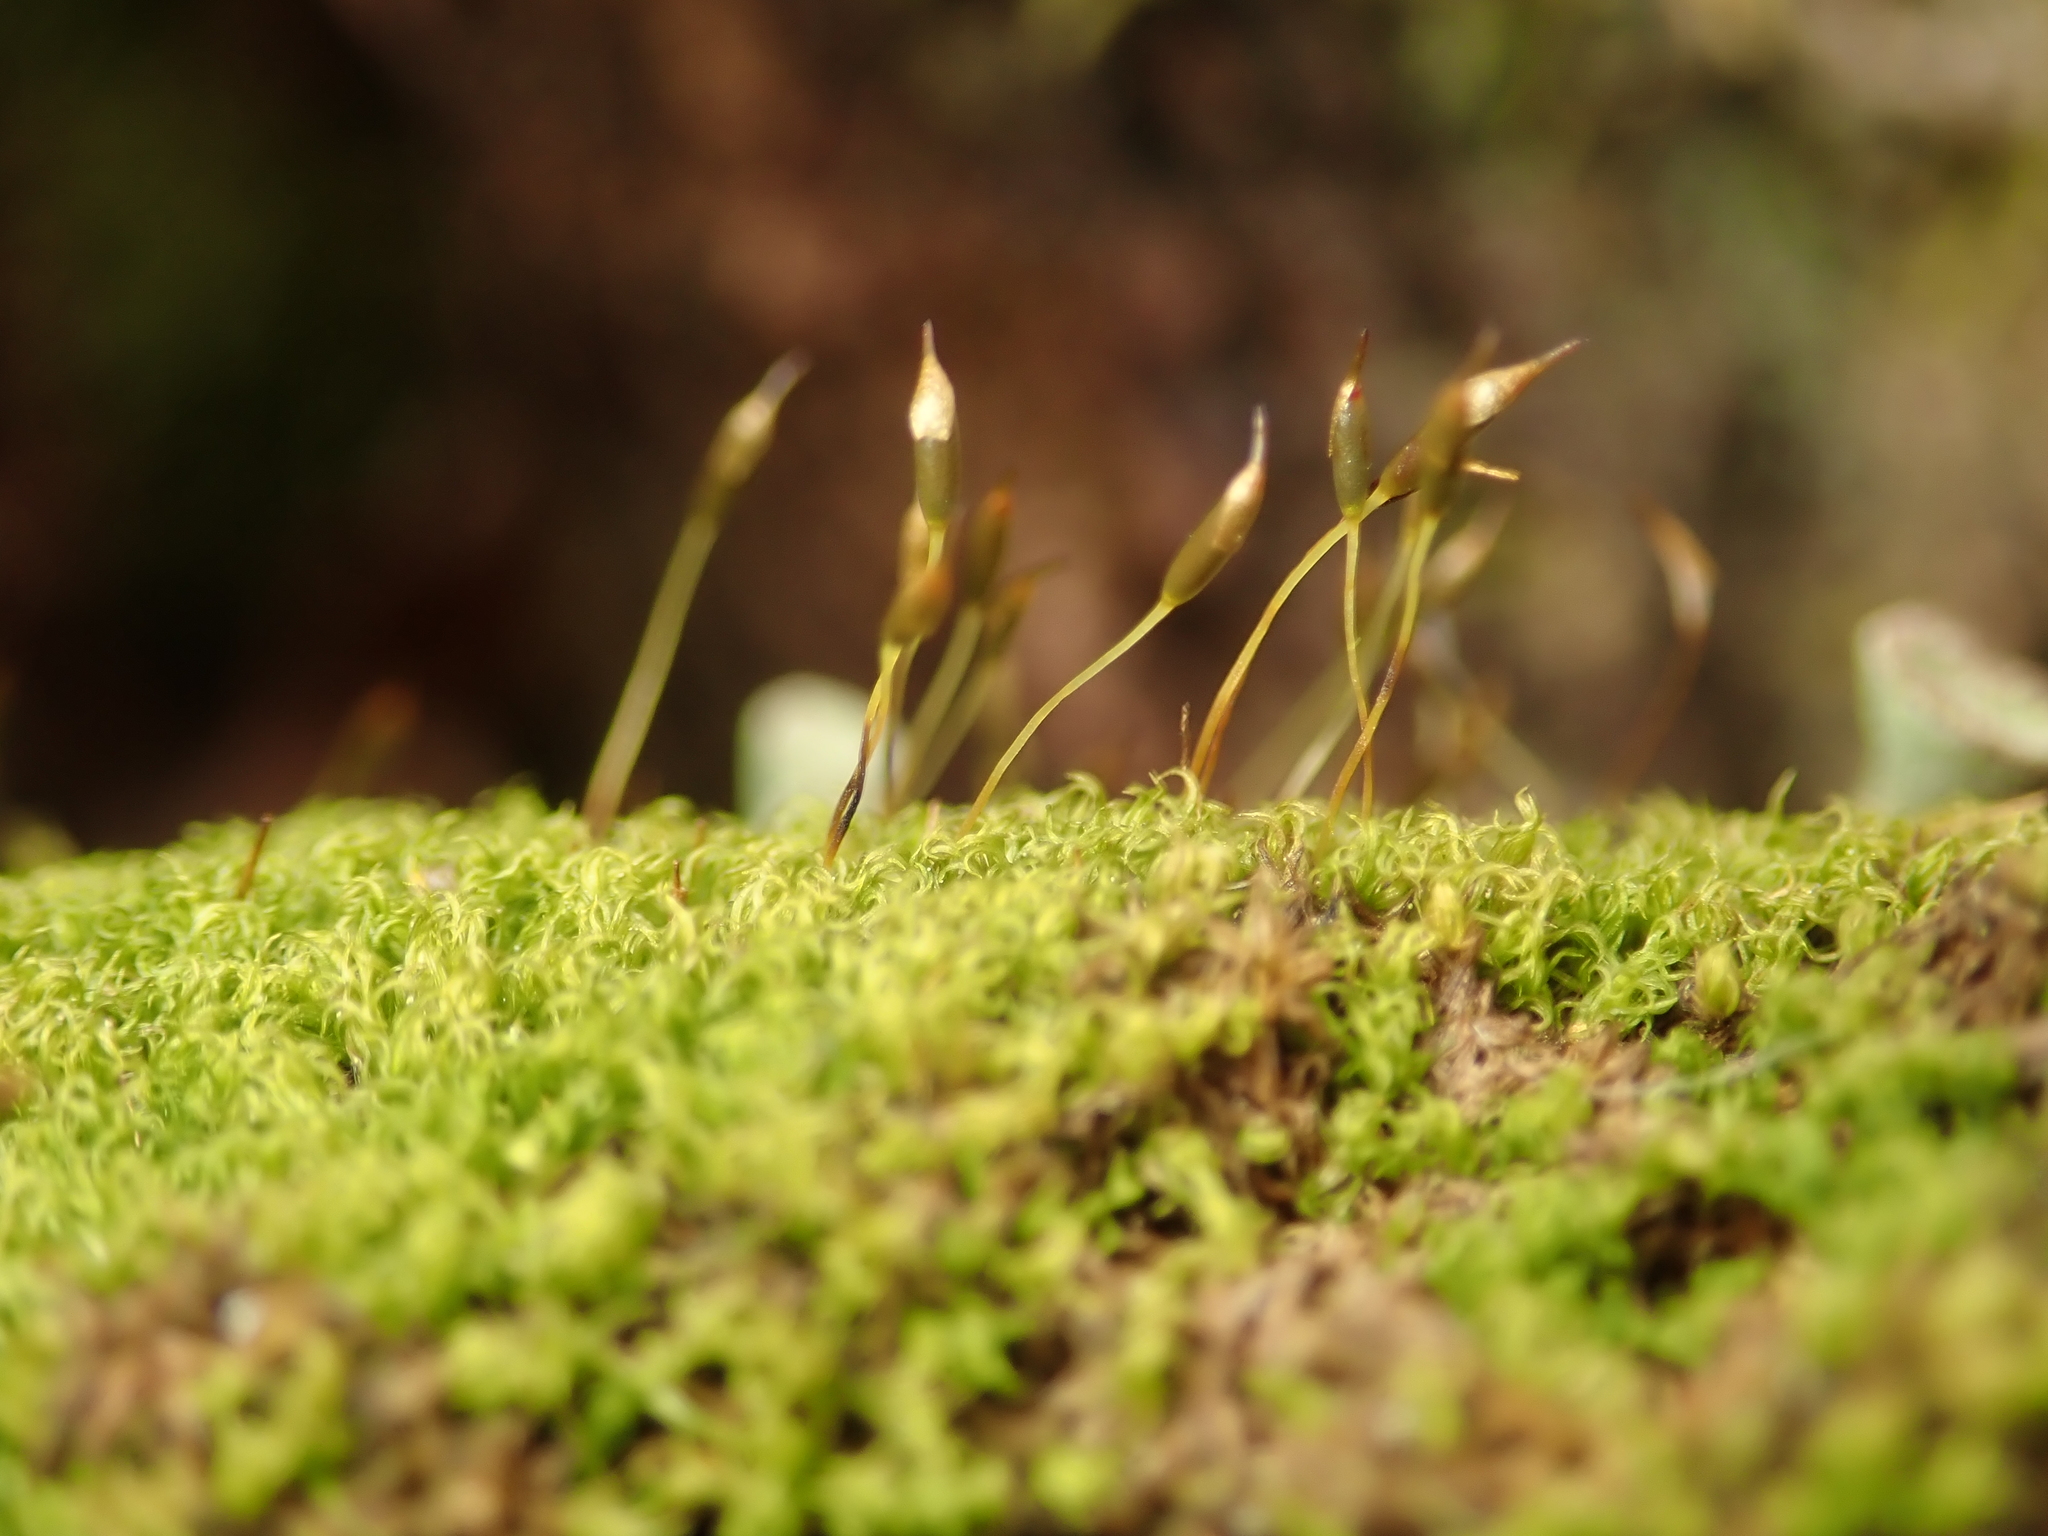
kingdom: Plantae
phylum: Bryophyta
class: Bryopsida
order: Dicranales
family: Rhabdoweisiaceae
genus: Dicranoweisia
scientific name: Dicranoweisia cirrata
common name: Common pincushion
